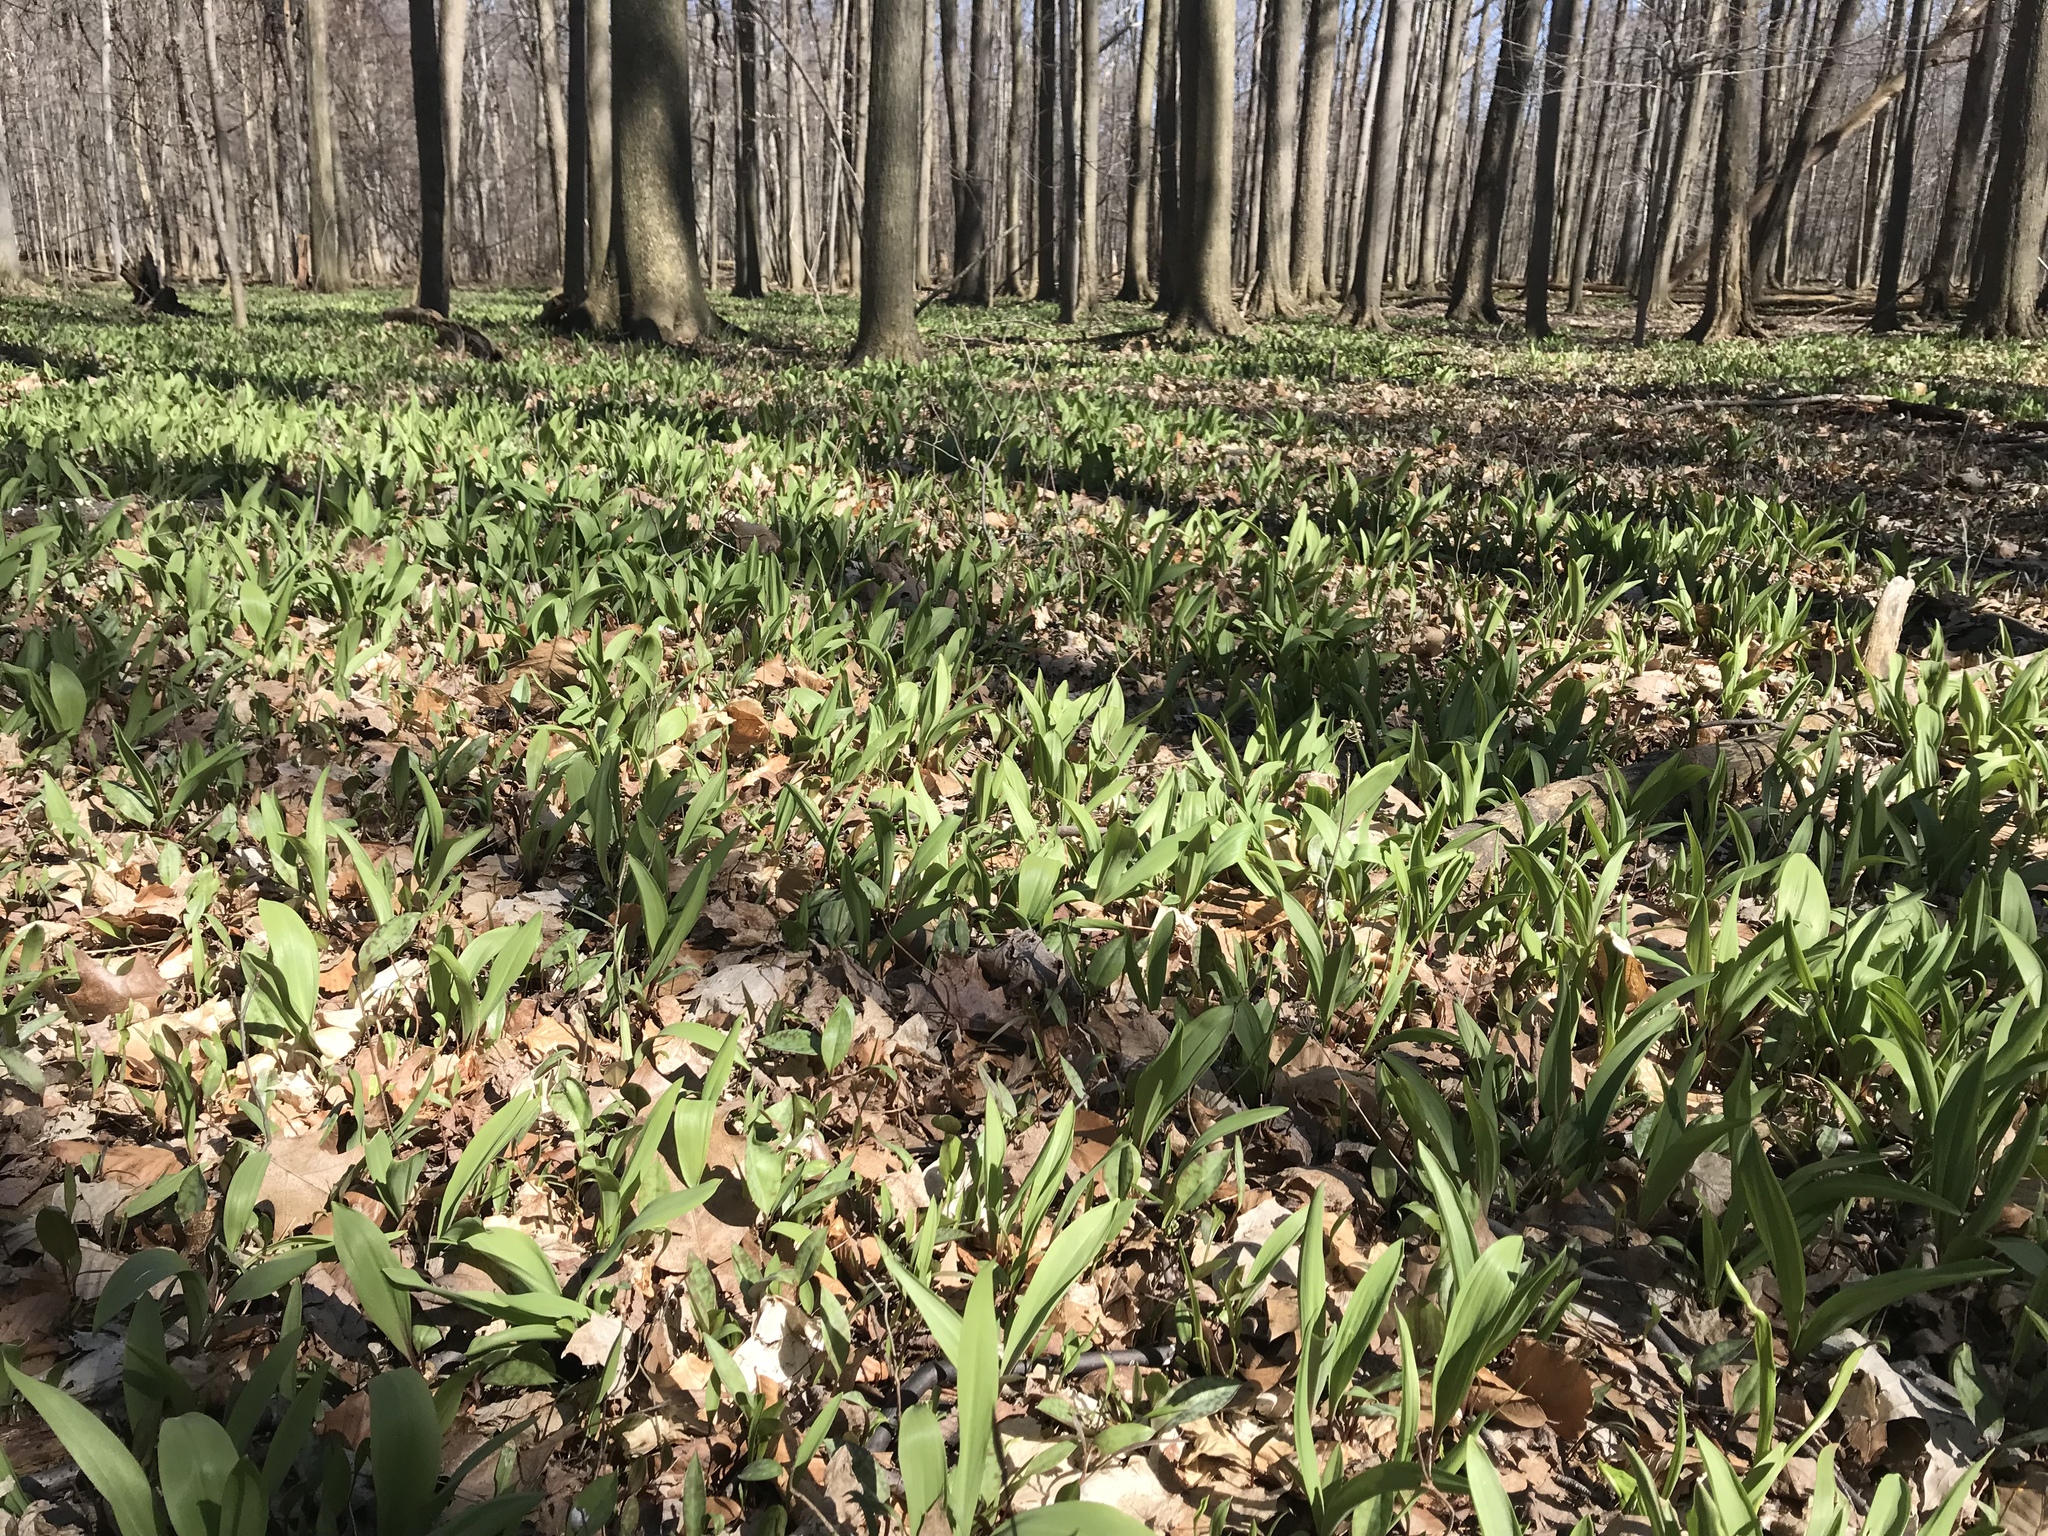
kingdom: Plantae
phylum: Tracheophyta
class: Liliopsida
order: Asparagales
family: Amaryllidaceae
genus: Allium
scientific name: Allium tricoccum
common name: Ramp
